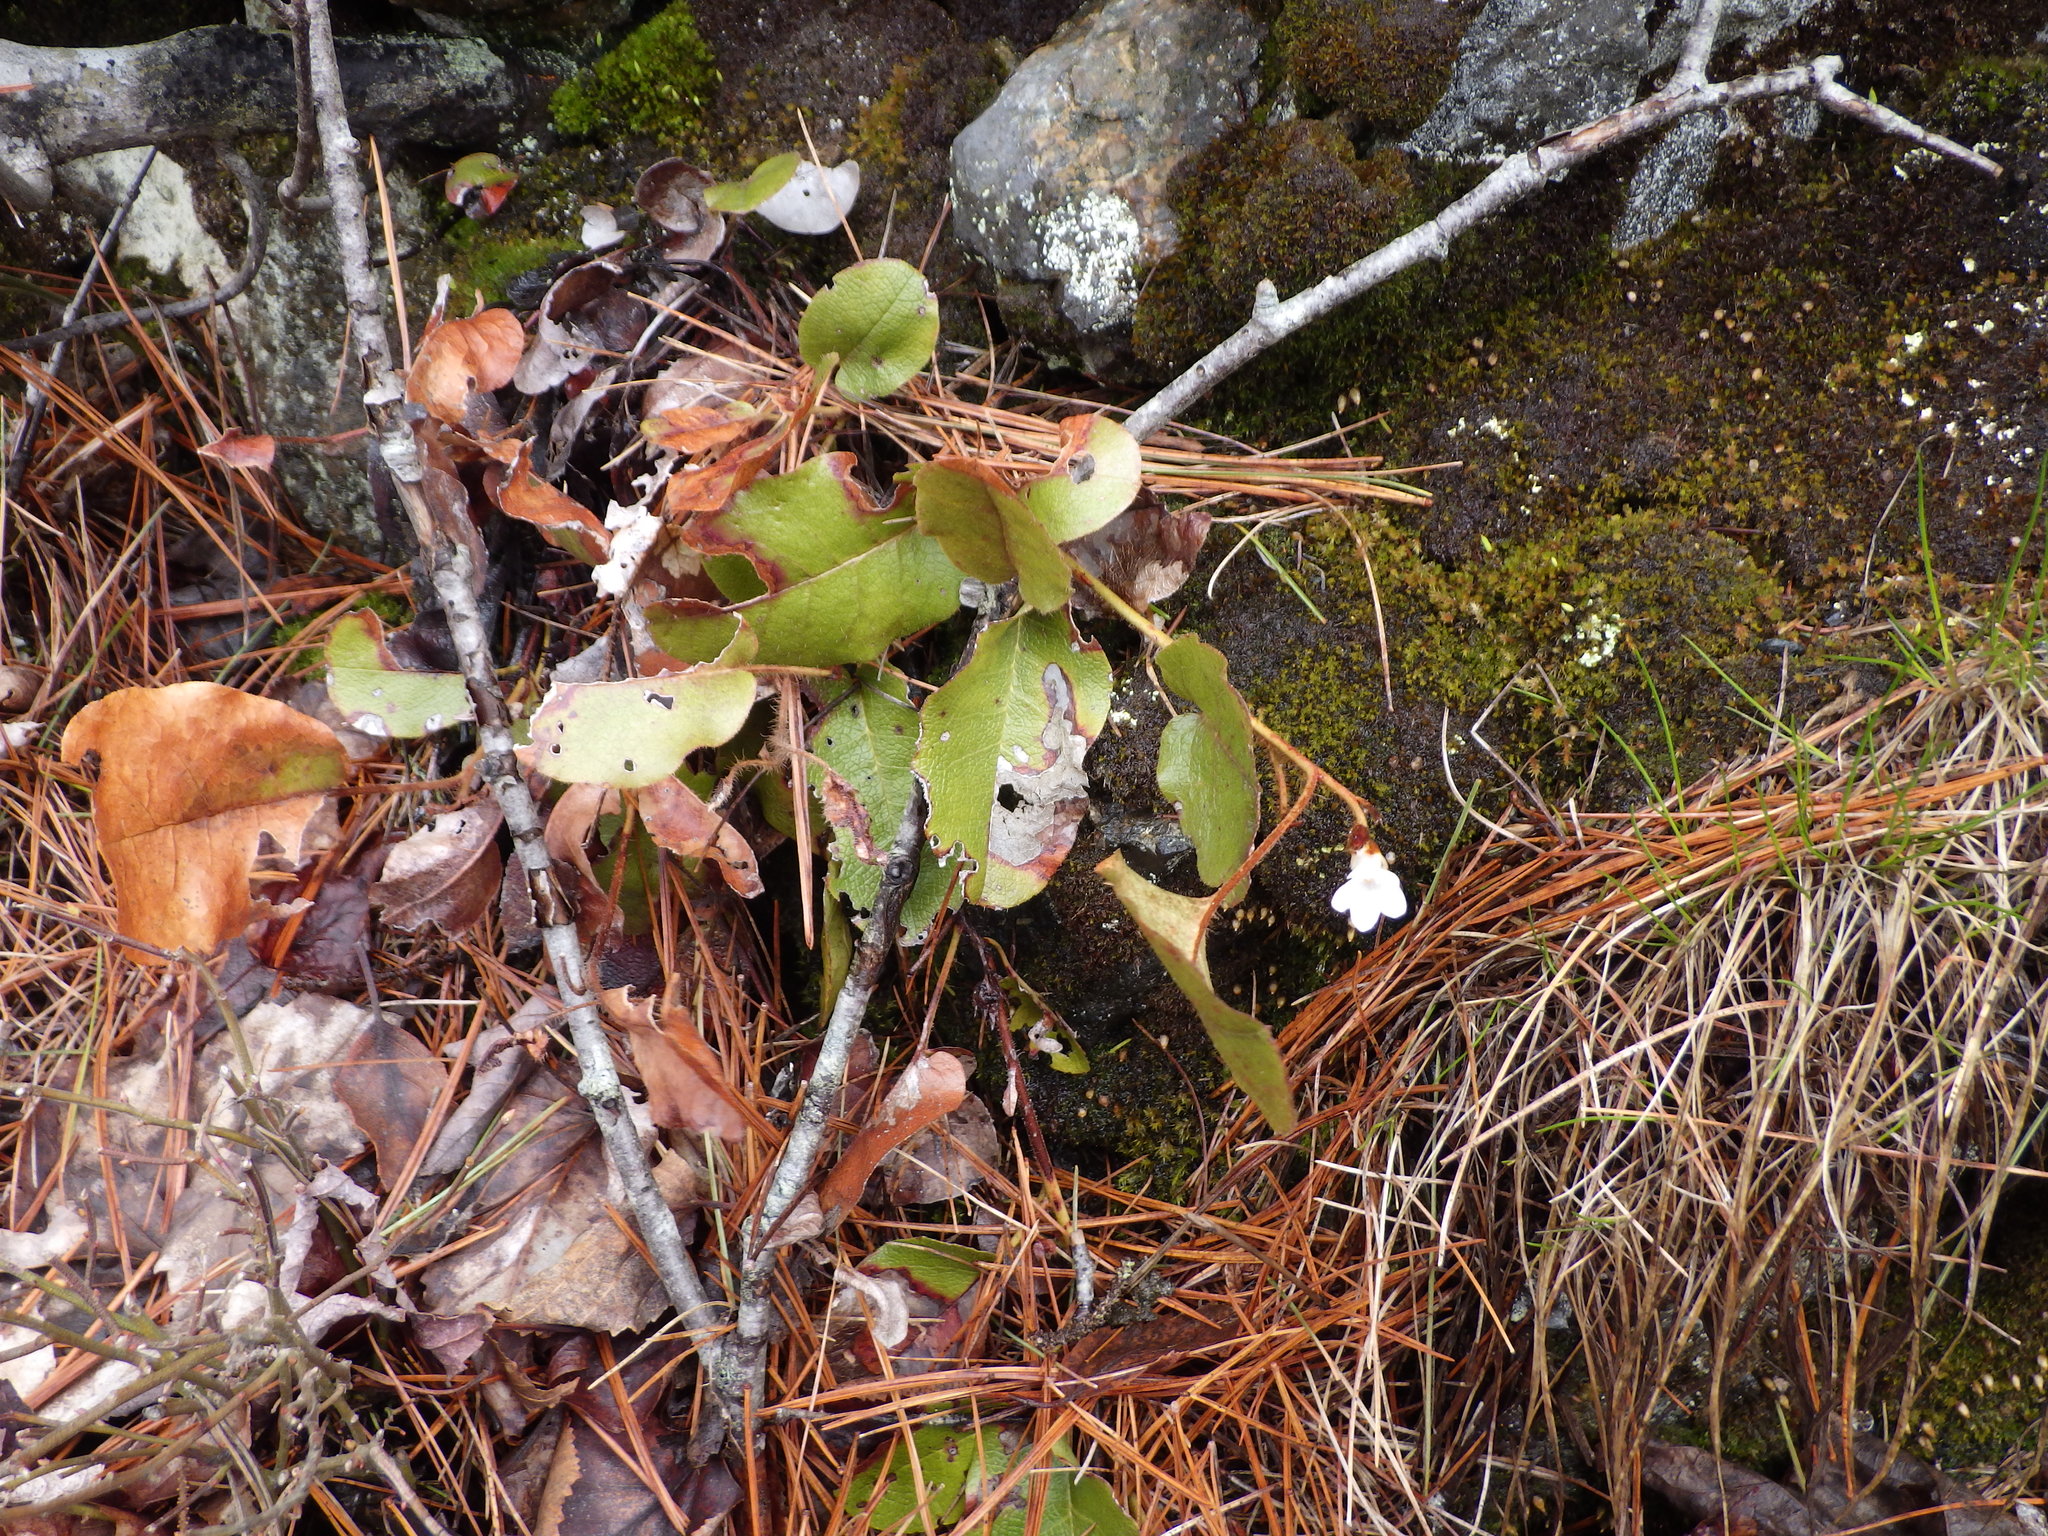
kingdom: Plantae
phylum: Tracheophyta
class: Magnoliopsida
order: Ericales
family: Ericaceae
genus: Epigaea
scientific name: Epigaea repens
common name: Gravelroot
